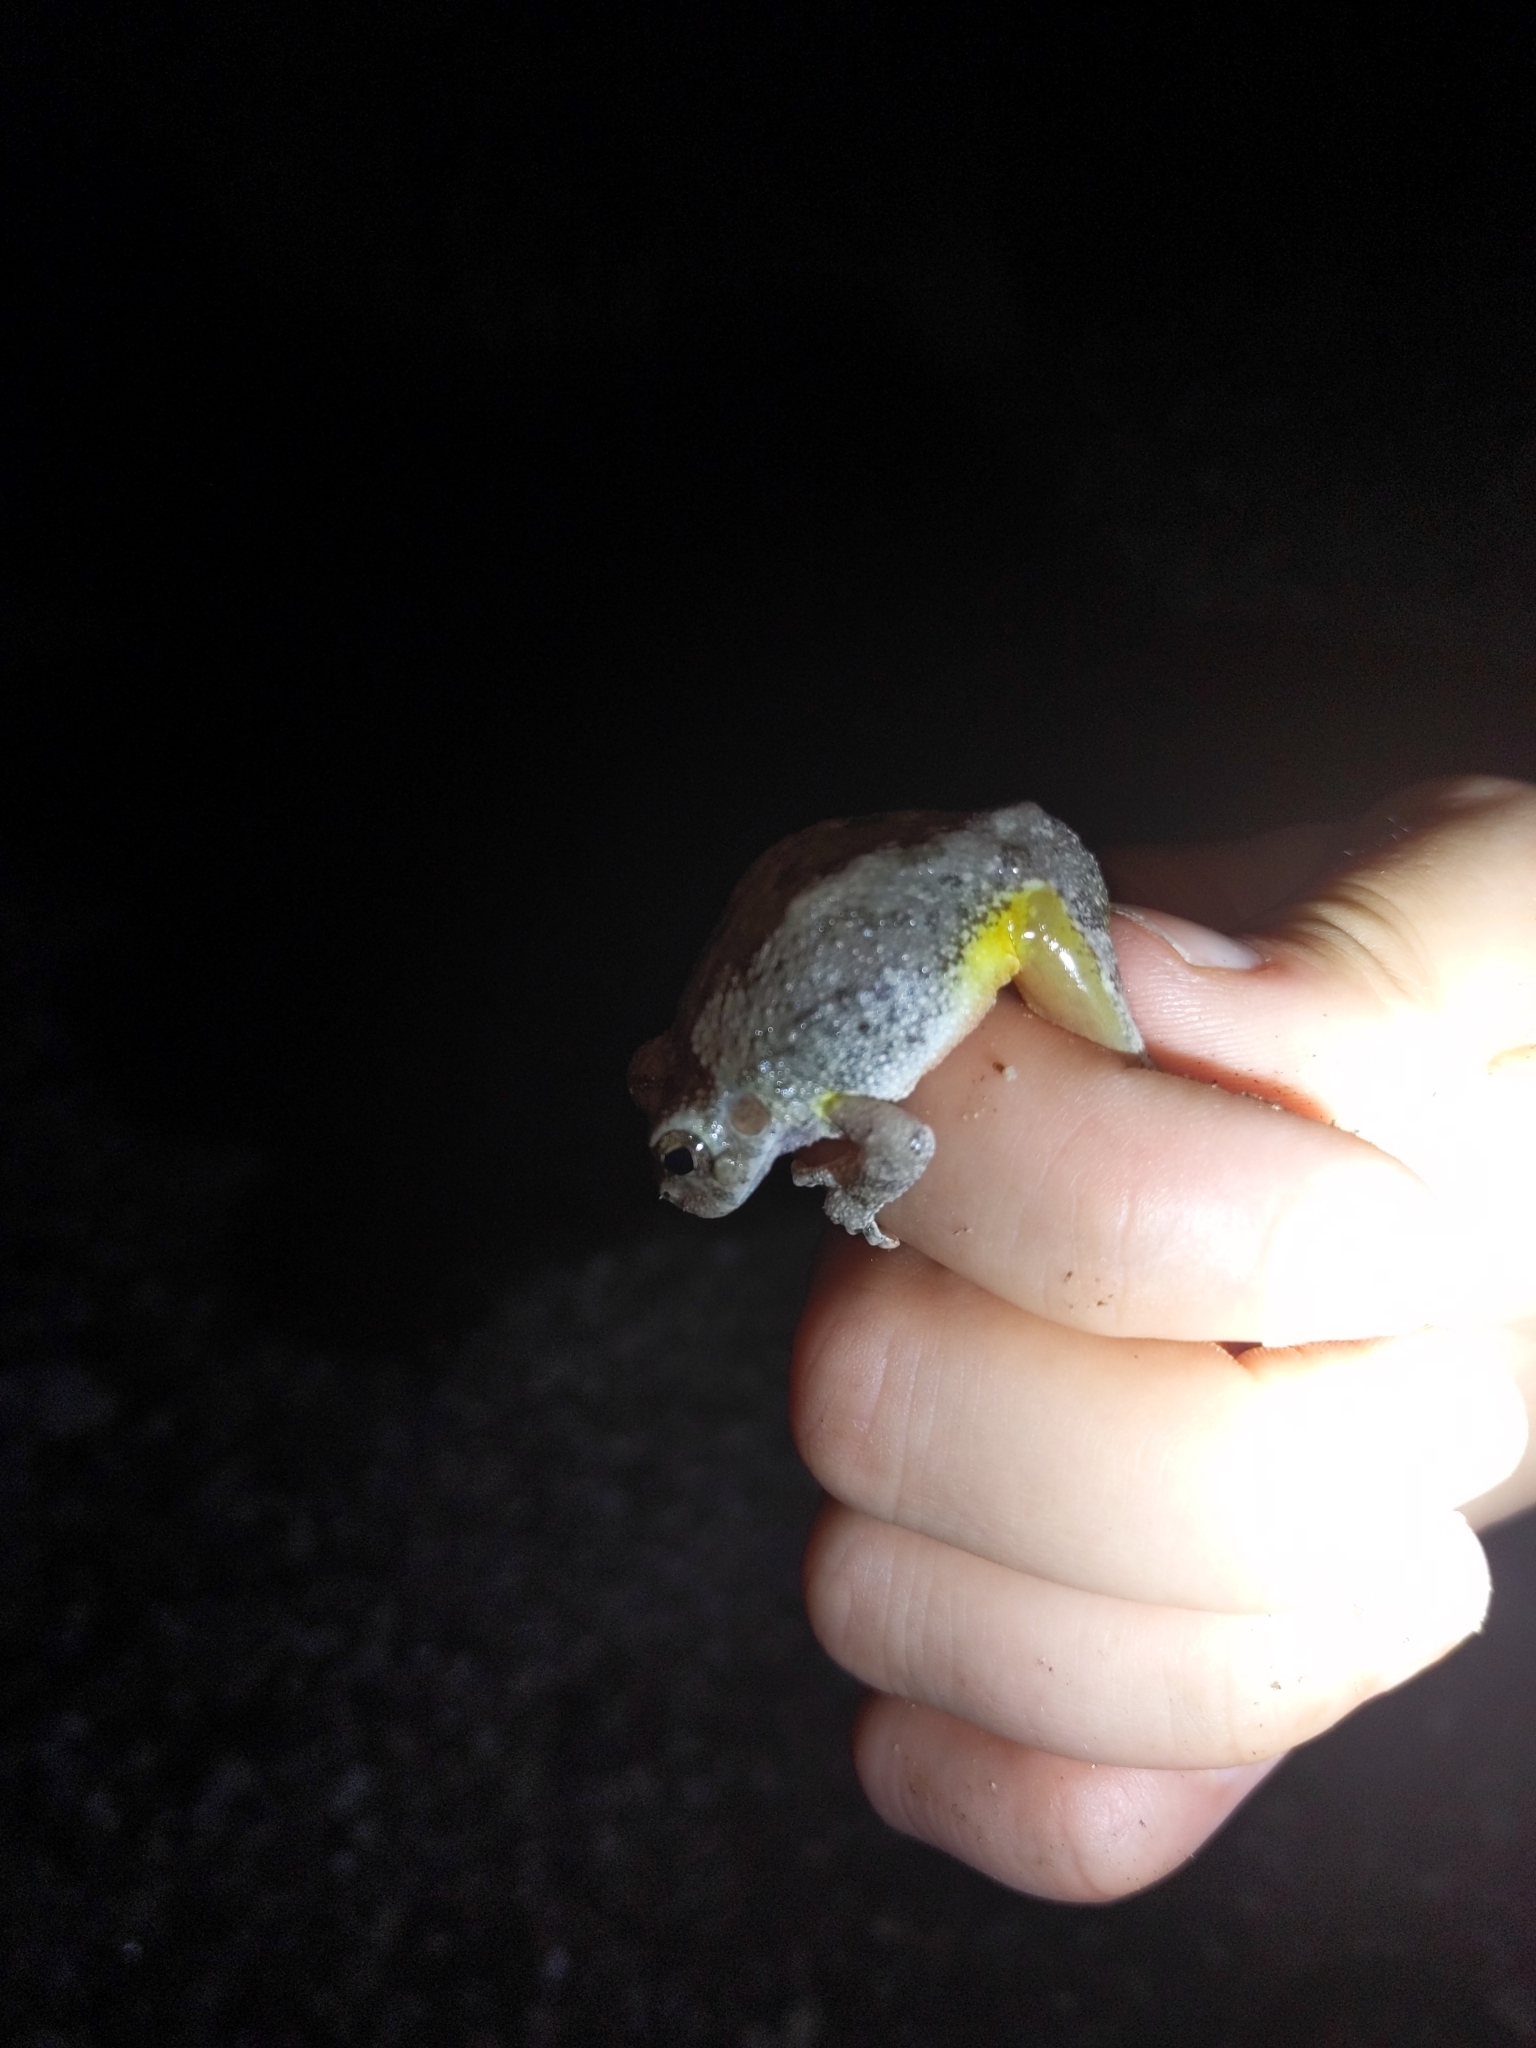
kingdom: Animalia
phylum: Chordata
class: Amphibia
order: Anura
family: Hylidae
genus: Dryophytes
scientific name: Dryophytes arenicolor
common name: Canyon treefrog
